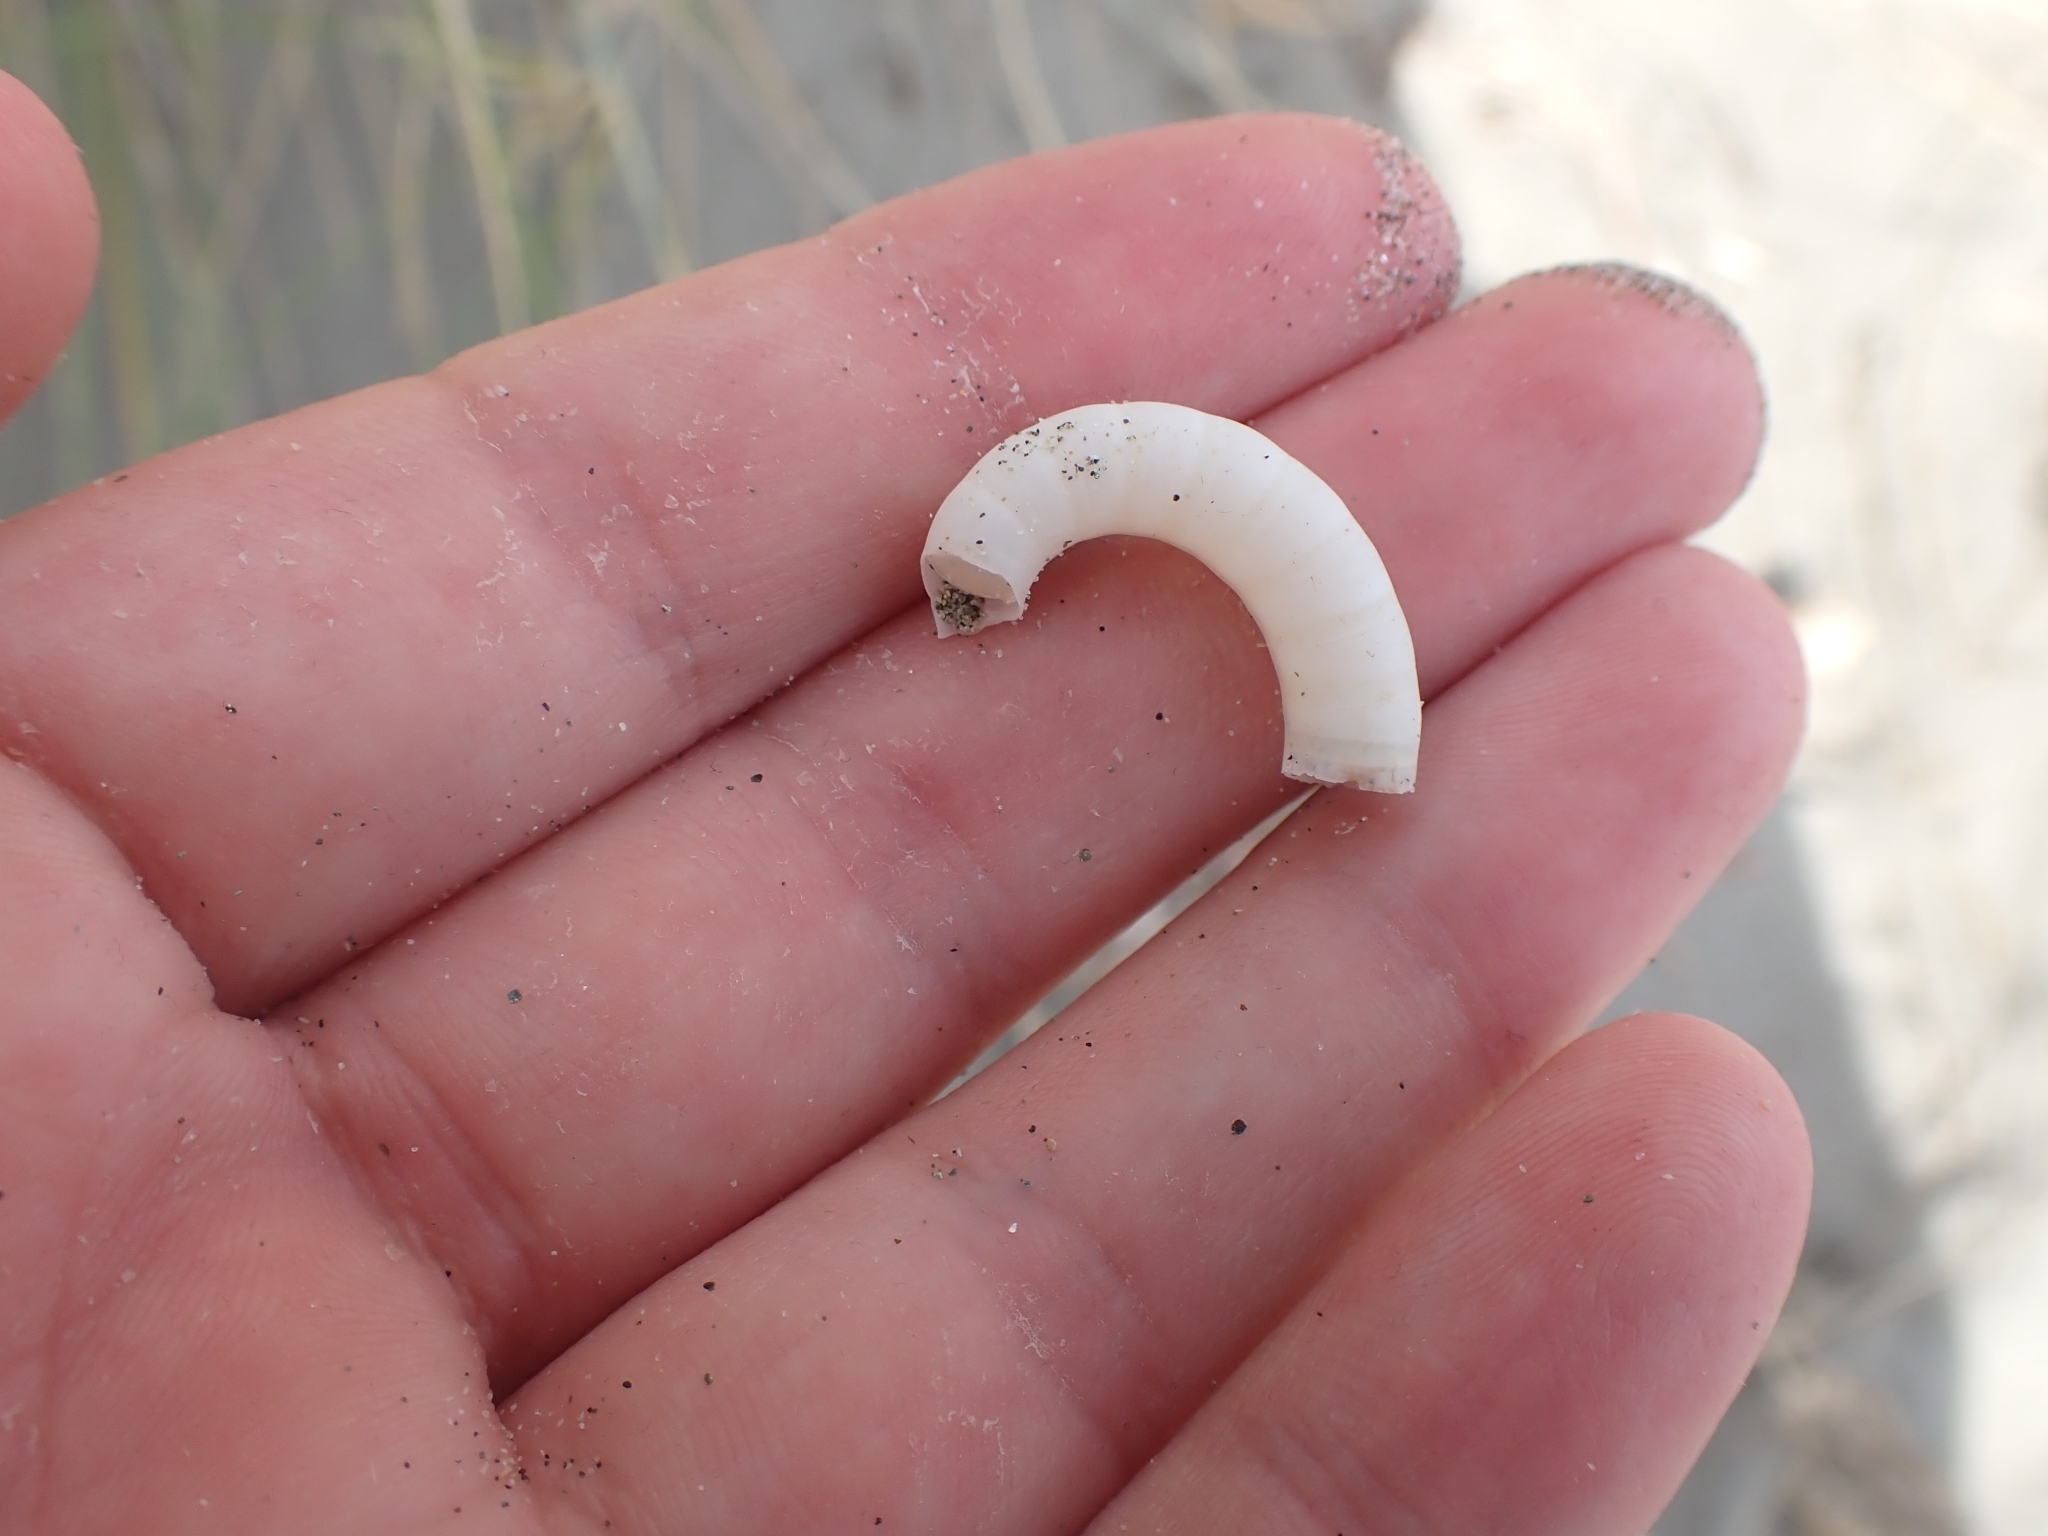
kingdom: Animalia
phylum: Mollusca
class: Cephalopoda
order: Spirulida
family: Spirulidae
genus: Spirula
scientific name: Spirula spirula
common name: Ram's horn squid
